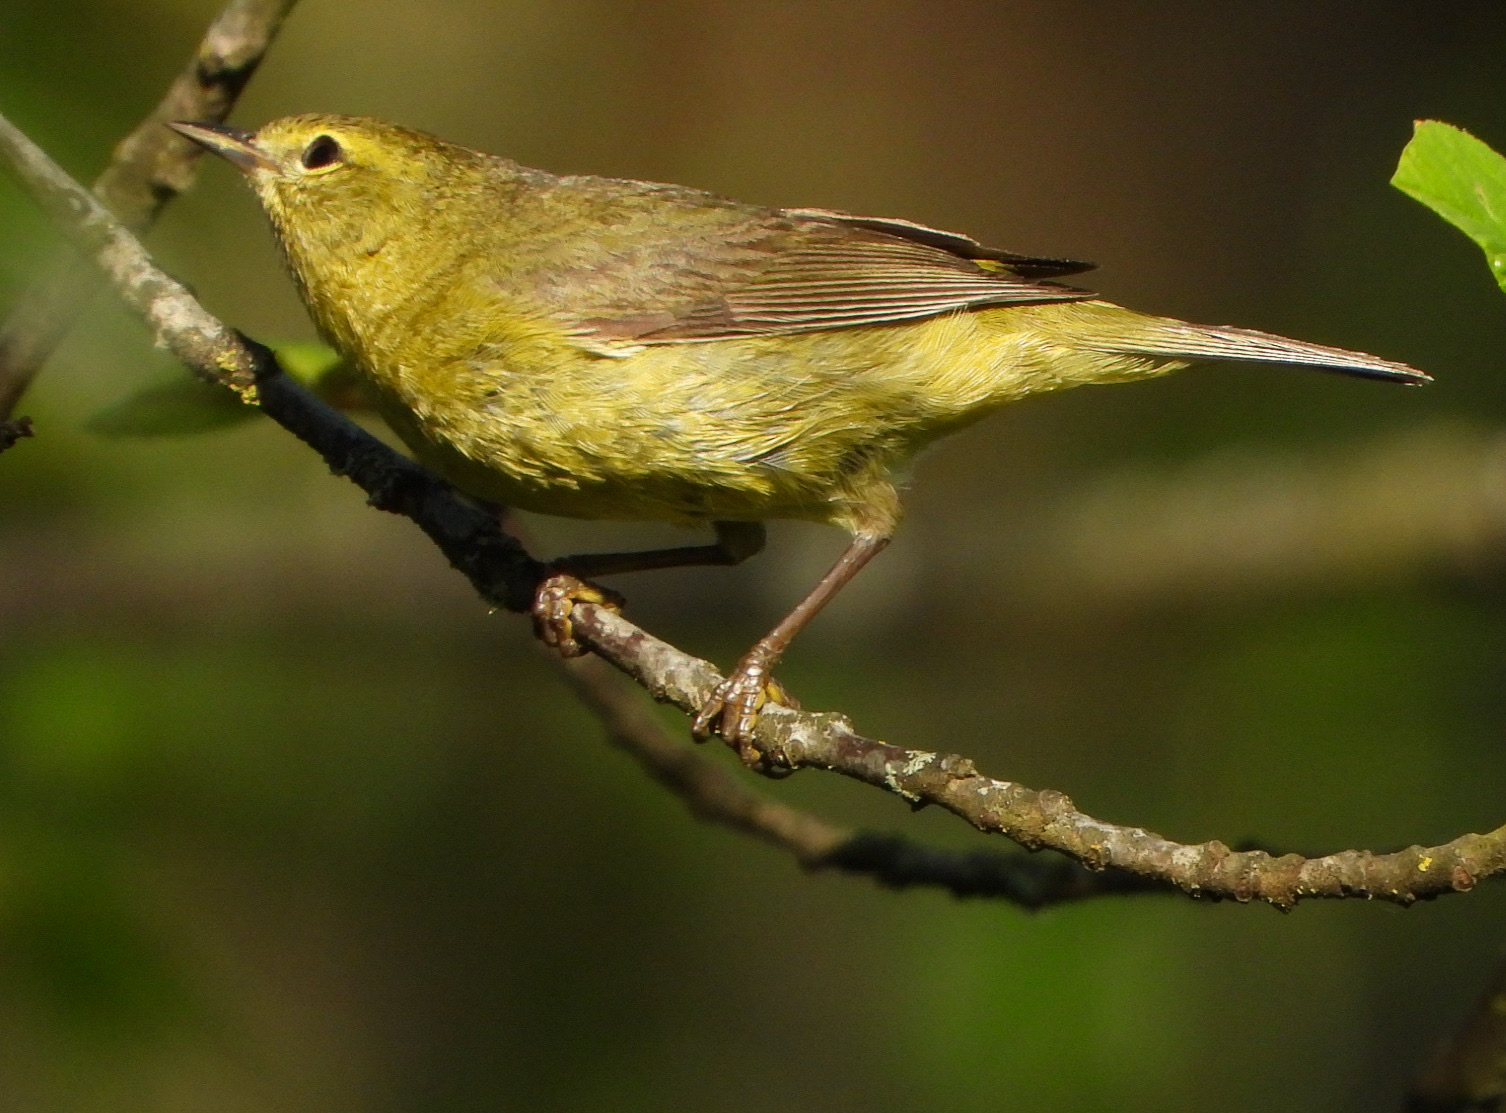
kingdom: Animalia
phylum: Chordata
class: Aves
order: Passeriformes
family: Parulidae
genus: Leiothlypis
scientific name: Leiothlypis celata
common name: Orange-crowned warbler
